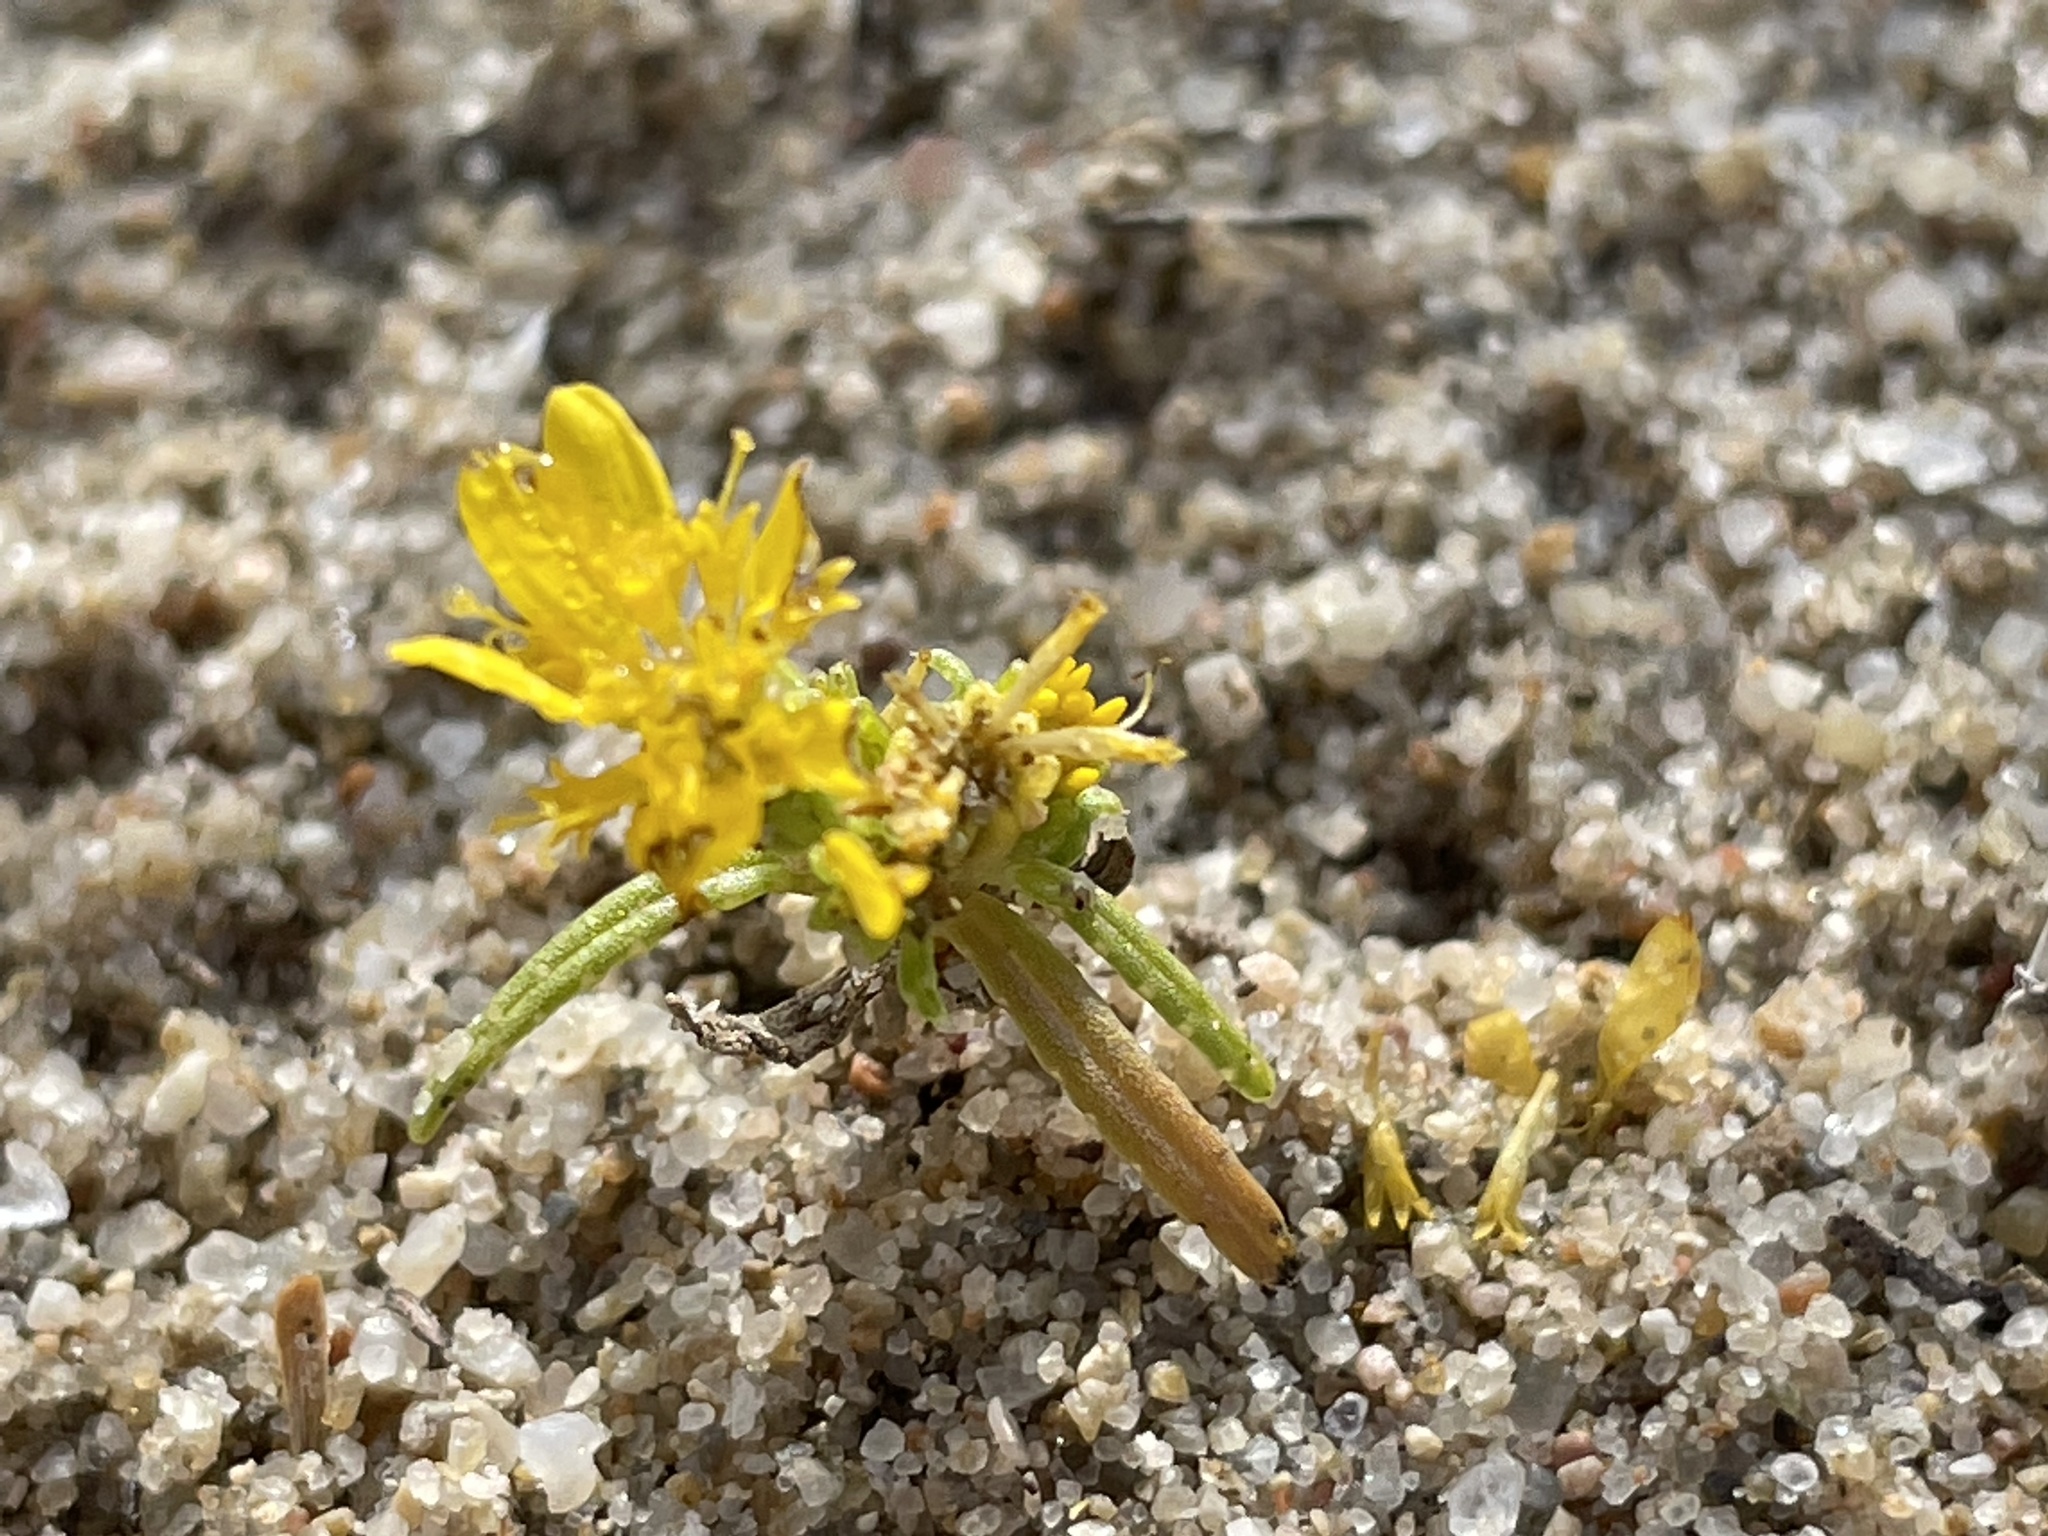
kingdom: Plantae
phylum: Tracheophyta
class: Magnoliopsida
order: Asterales
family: Asteraceae
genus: Pectis
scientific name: Pectis angustifolia
